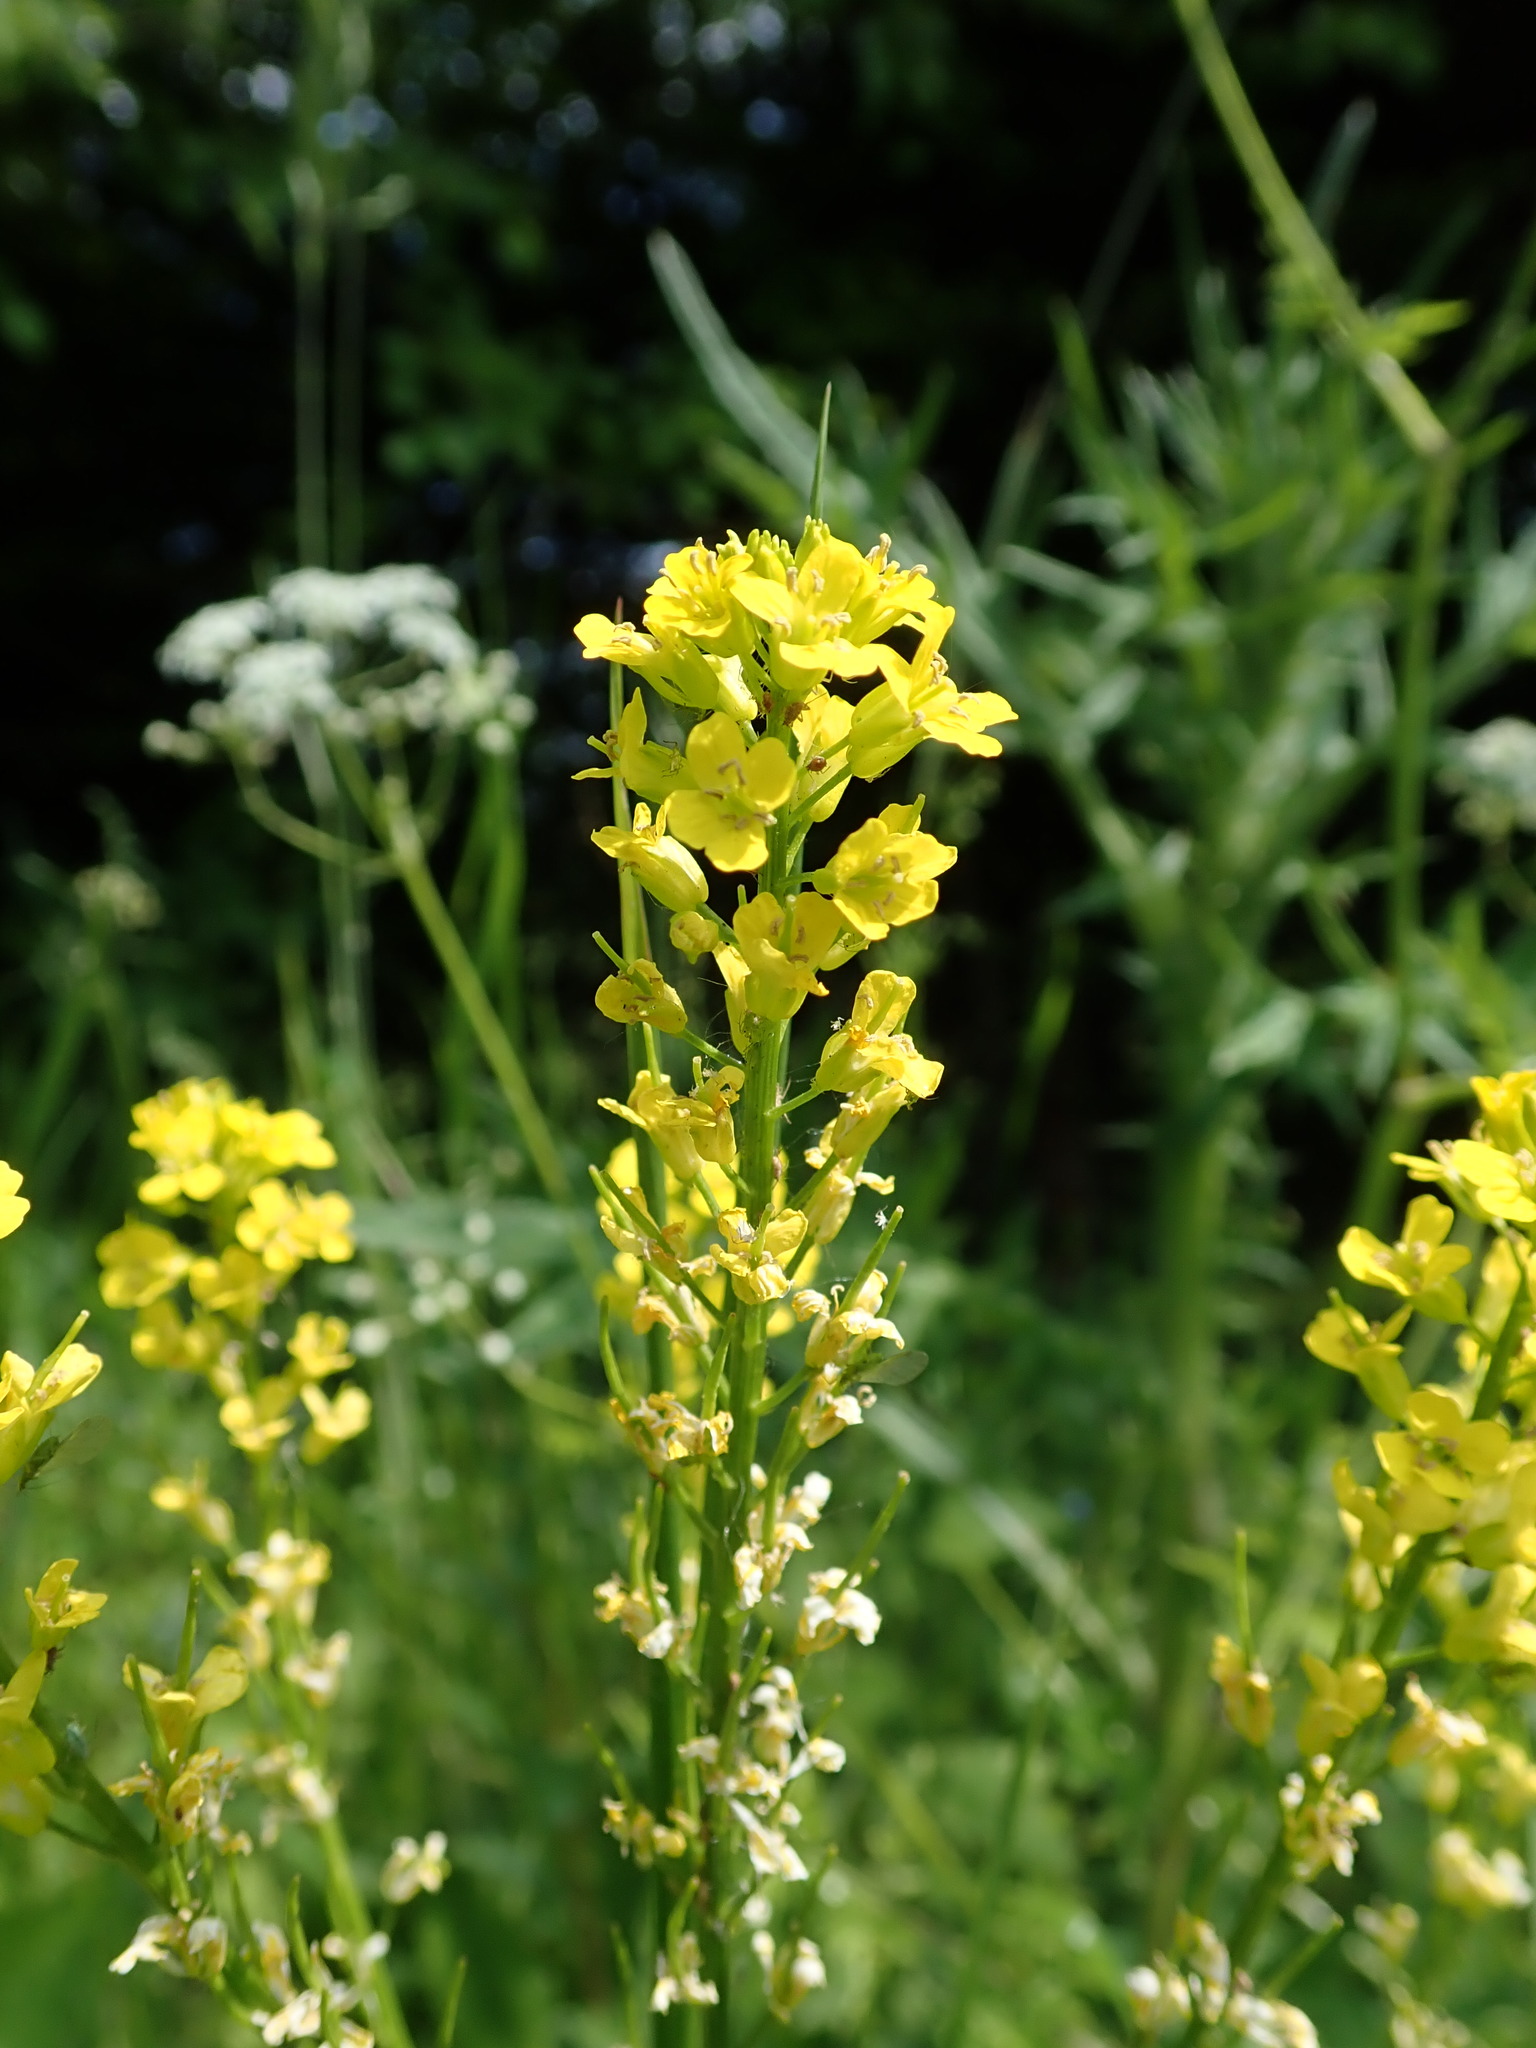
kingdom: Plantae
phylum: Tracheophyta
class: Magnoliopsida
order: Brassicales
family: Brassicaceae
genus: Barbarea
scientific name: Barbarea vulgaris
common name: Cressy-greens
